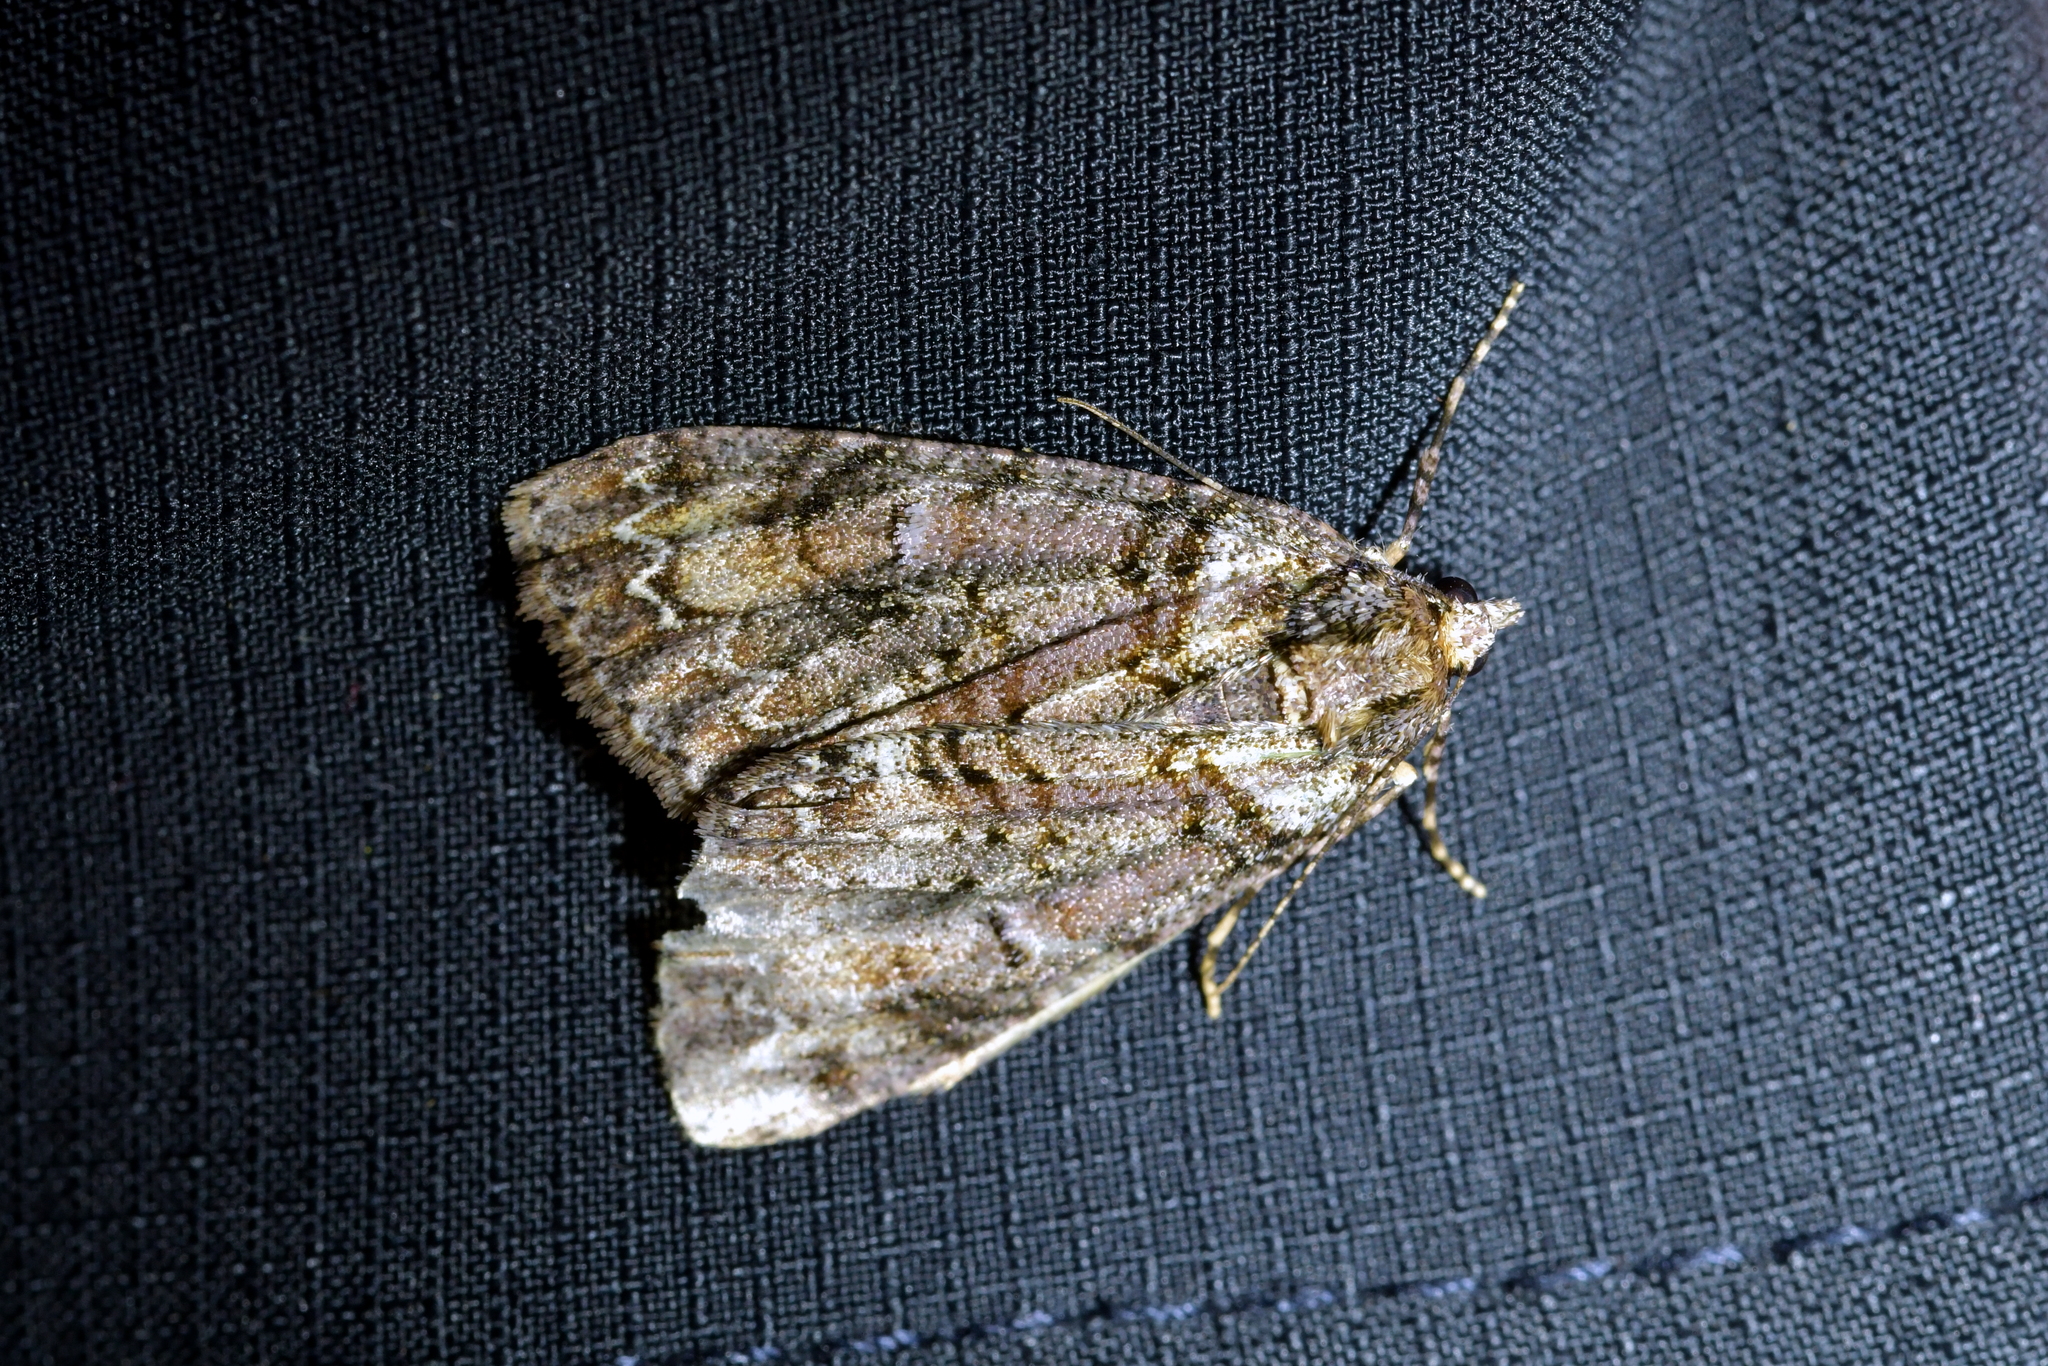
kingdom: Animalia
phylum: Arthropoda
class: Insecta
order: Lepidoptera
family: Geometridae
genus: Pseudocoremia
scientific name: Pseudocoremia suavis
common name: Common forest looper
